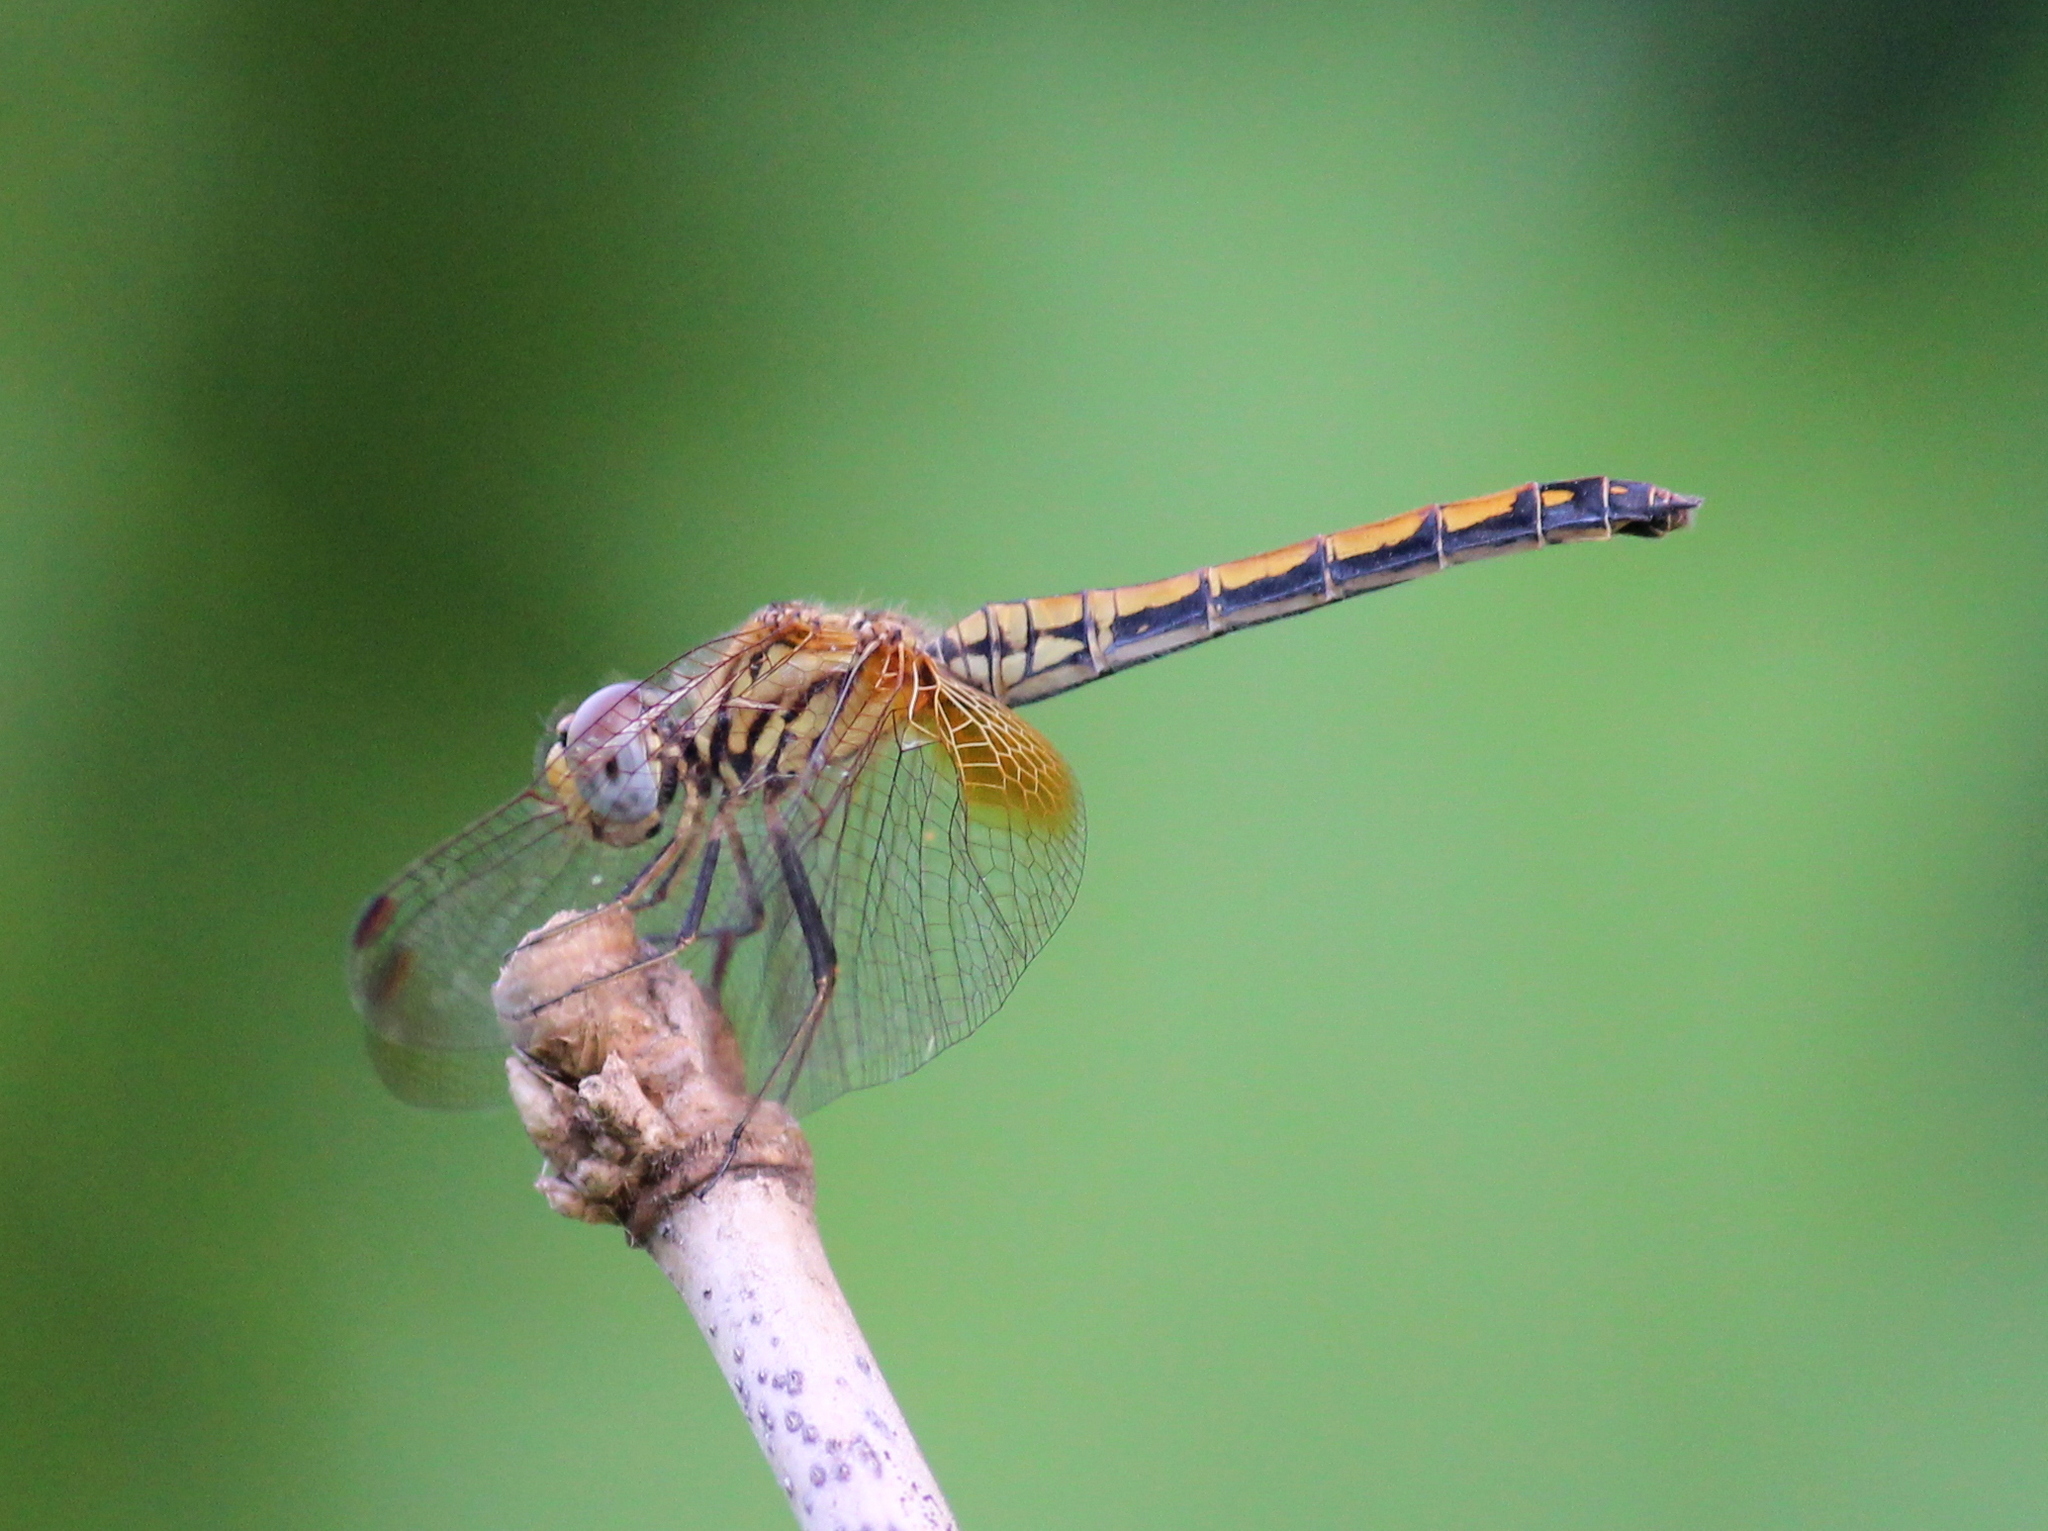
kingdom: Animalia
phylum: Arthropoda
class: Insecta
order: Odonata
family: Libellulidae
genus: Trithemis
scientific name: Trithemis aurora
